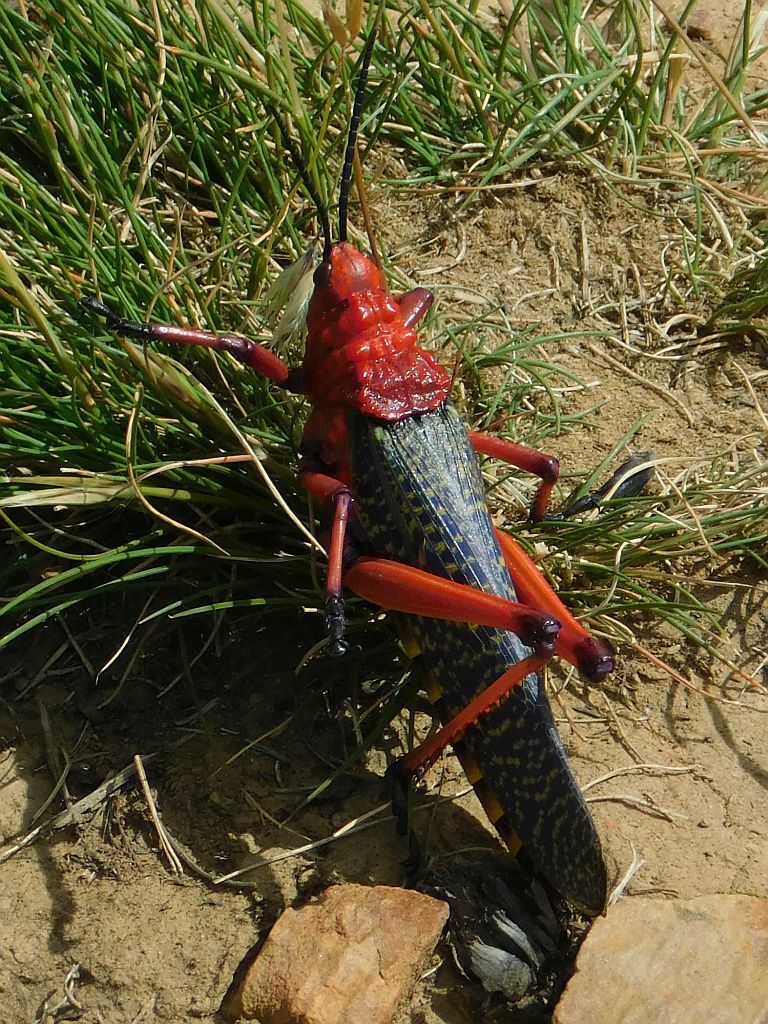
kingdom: Animalia
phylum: Arthropoda
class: Insecta
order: Orthoptera
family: Pyrgomorphidae
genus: Phymateus
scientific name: Phymateus morbillosus
